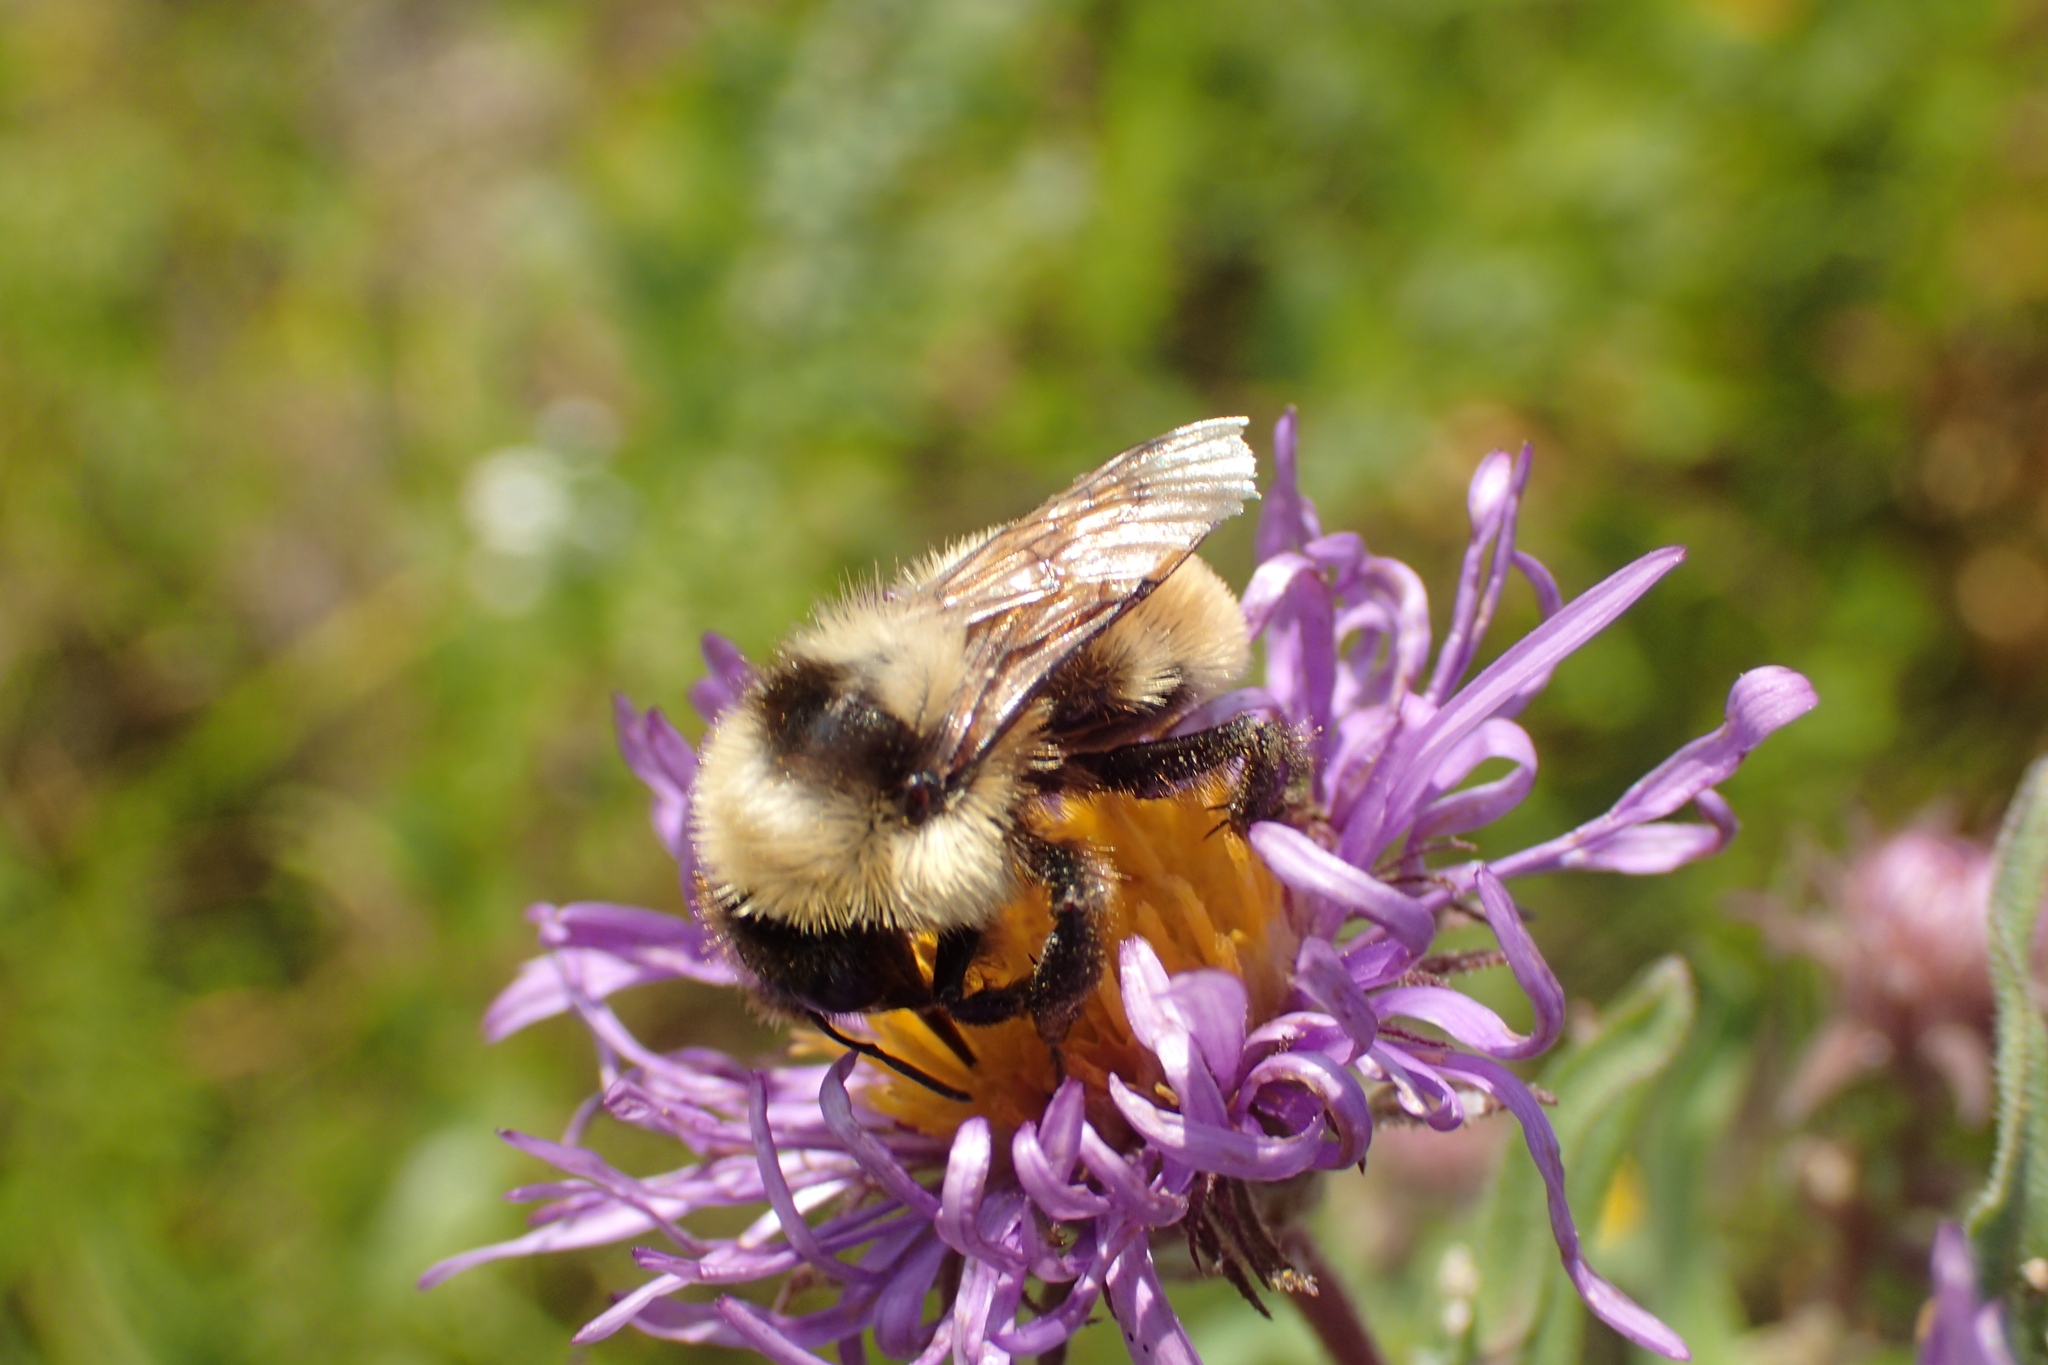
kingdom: Animalia
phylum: Arthropoda
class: Insecta
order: Hymenoptera
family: Apidae
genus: Bombus
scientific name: Bombus fervidus
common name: Yellow bumble bee
